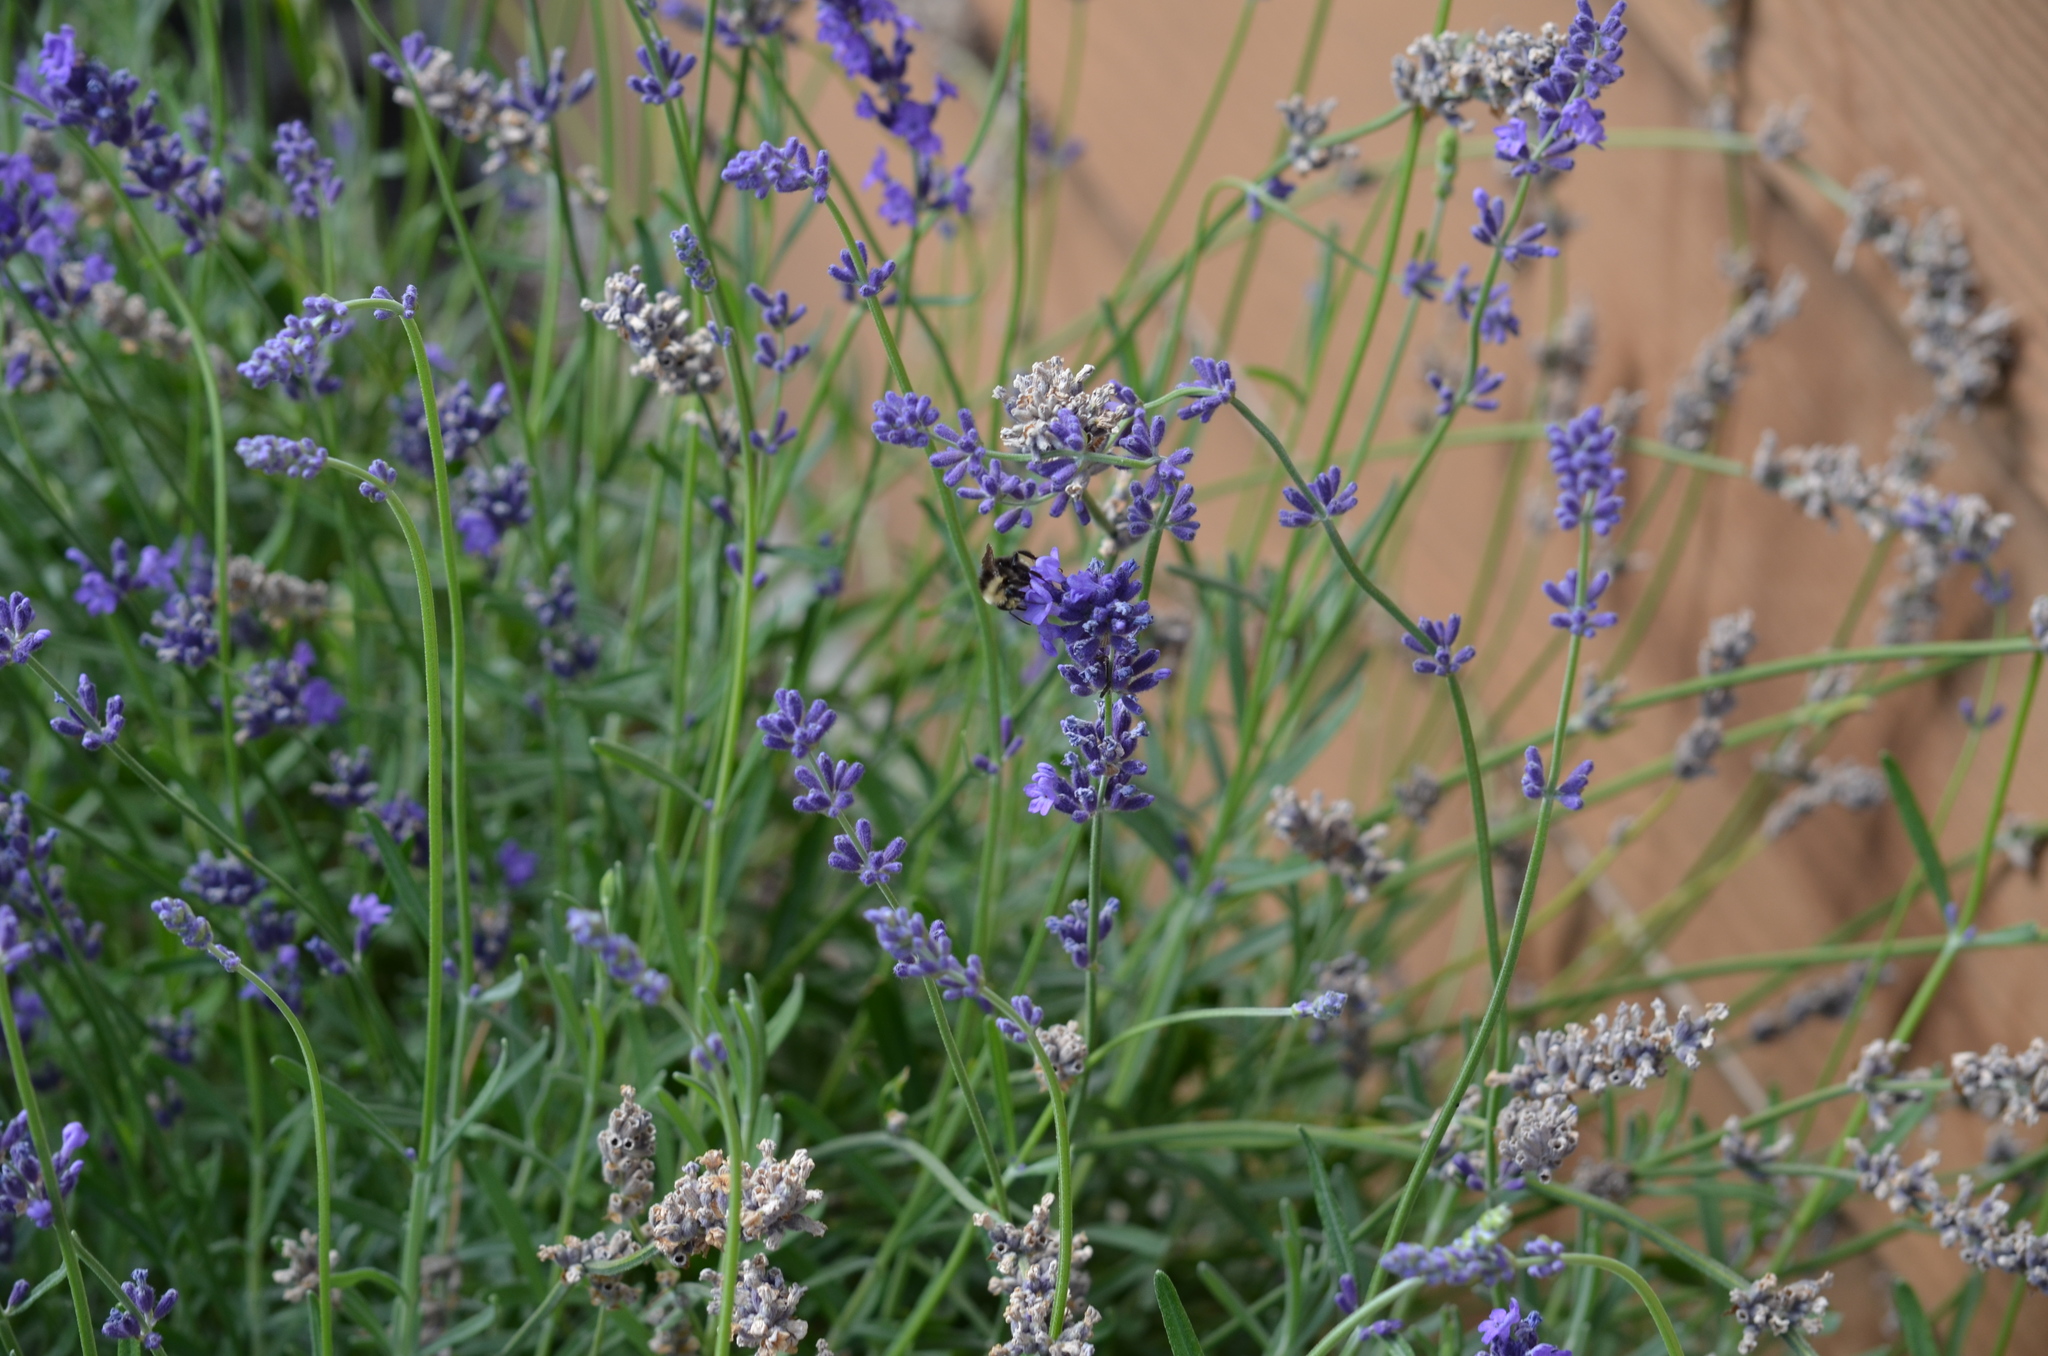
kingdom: Animalia
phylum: Arthropoda
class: Insecta
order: Hymenoptera
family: Apidae
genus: Bombus
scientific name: Bombus vosnesenskii
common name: Vosnesensky bumble bee
